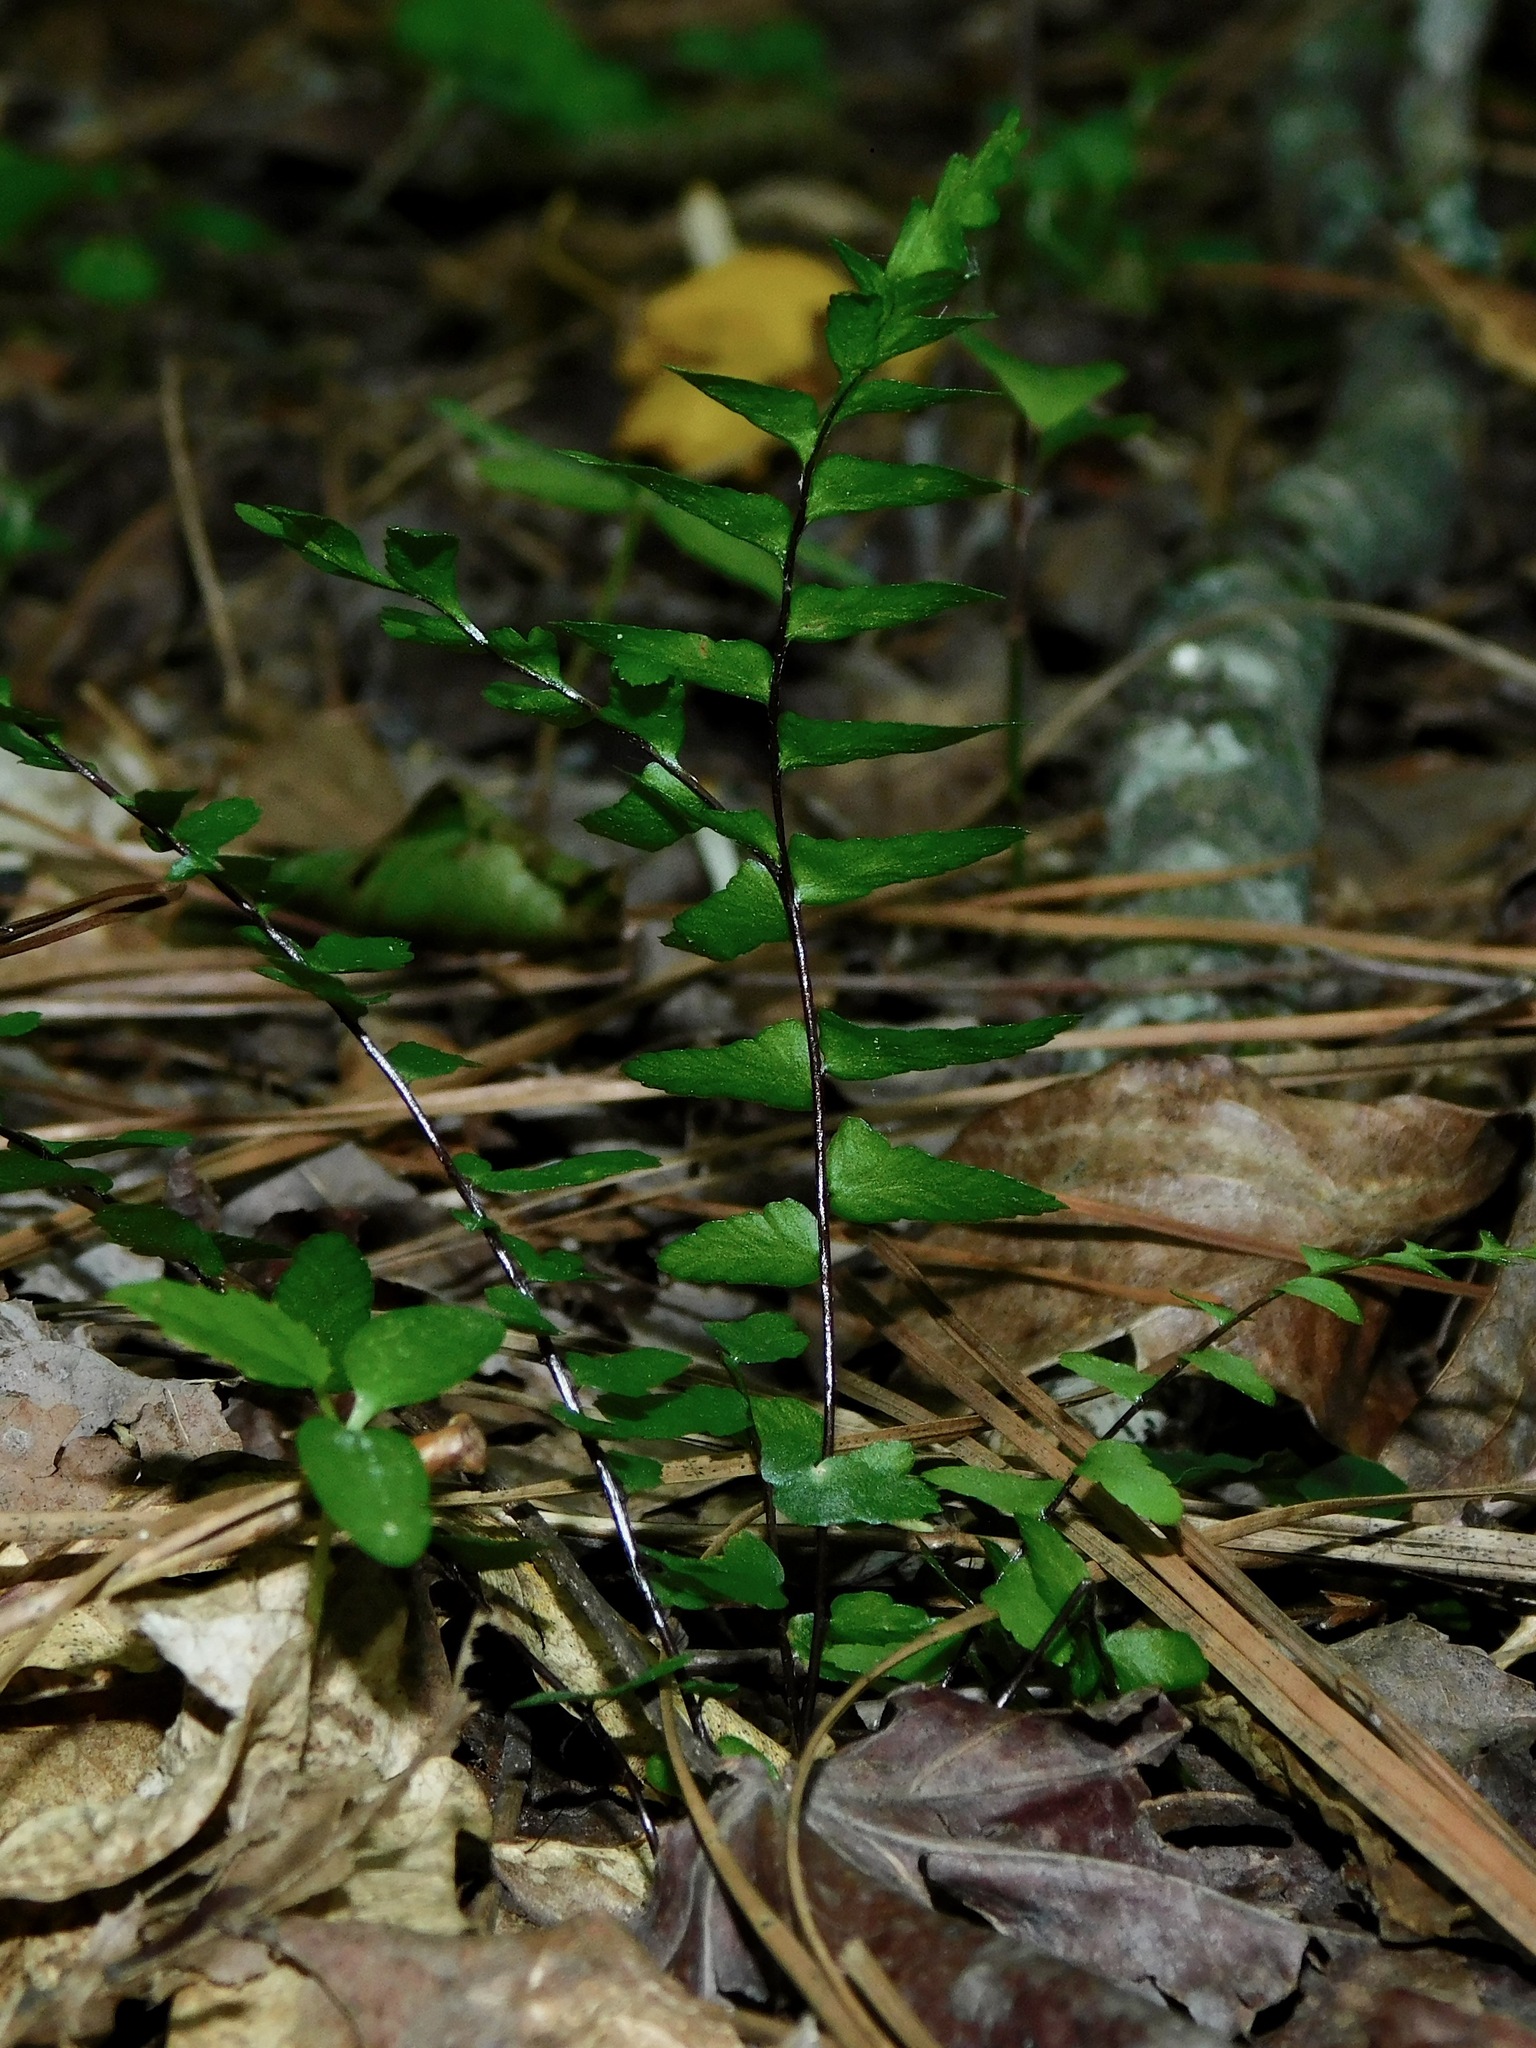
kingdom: Plantae
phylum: Tracheophyta
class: Polypodiopsida
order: Polypodiales
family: Aspleniaceae
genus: Asplenium
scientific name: Asplenium platyneuron
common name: Ebony spleenwort
